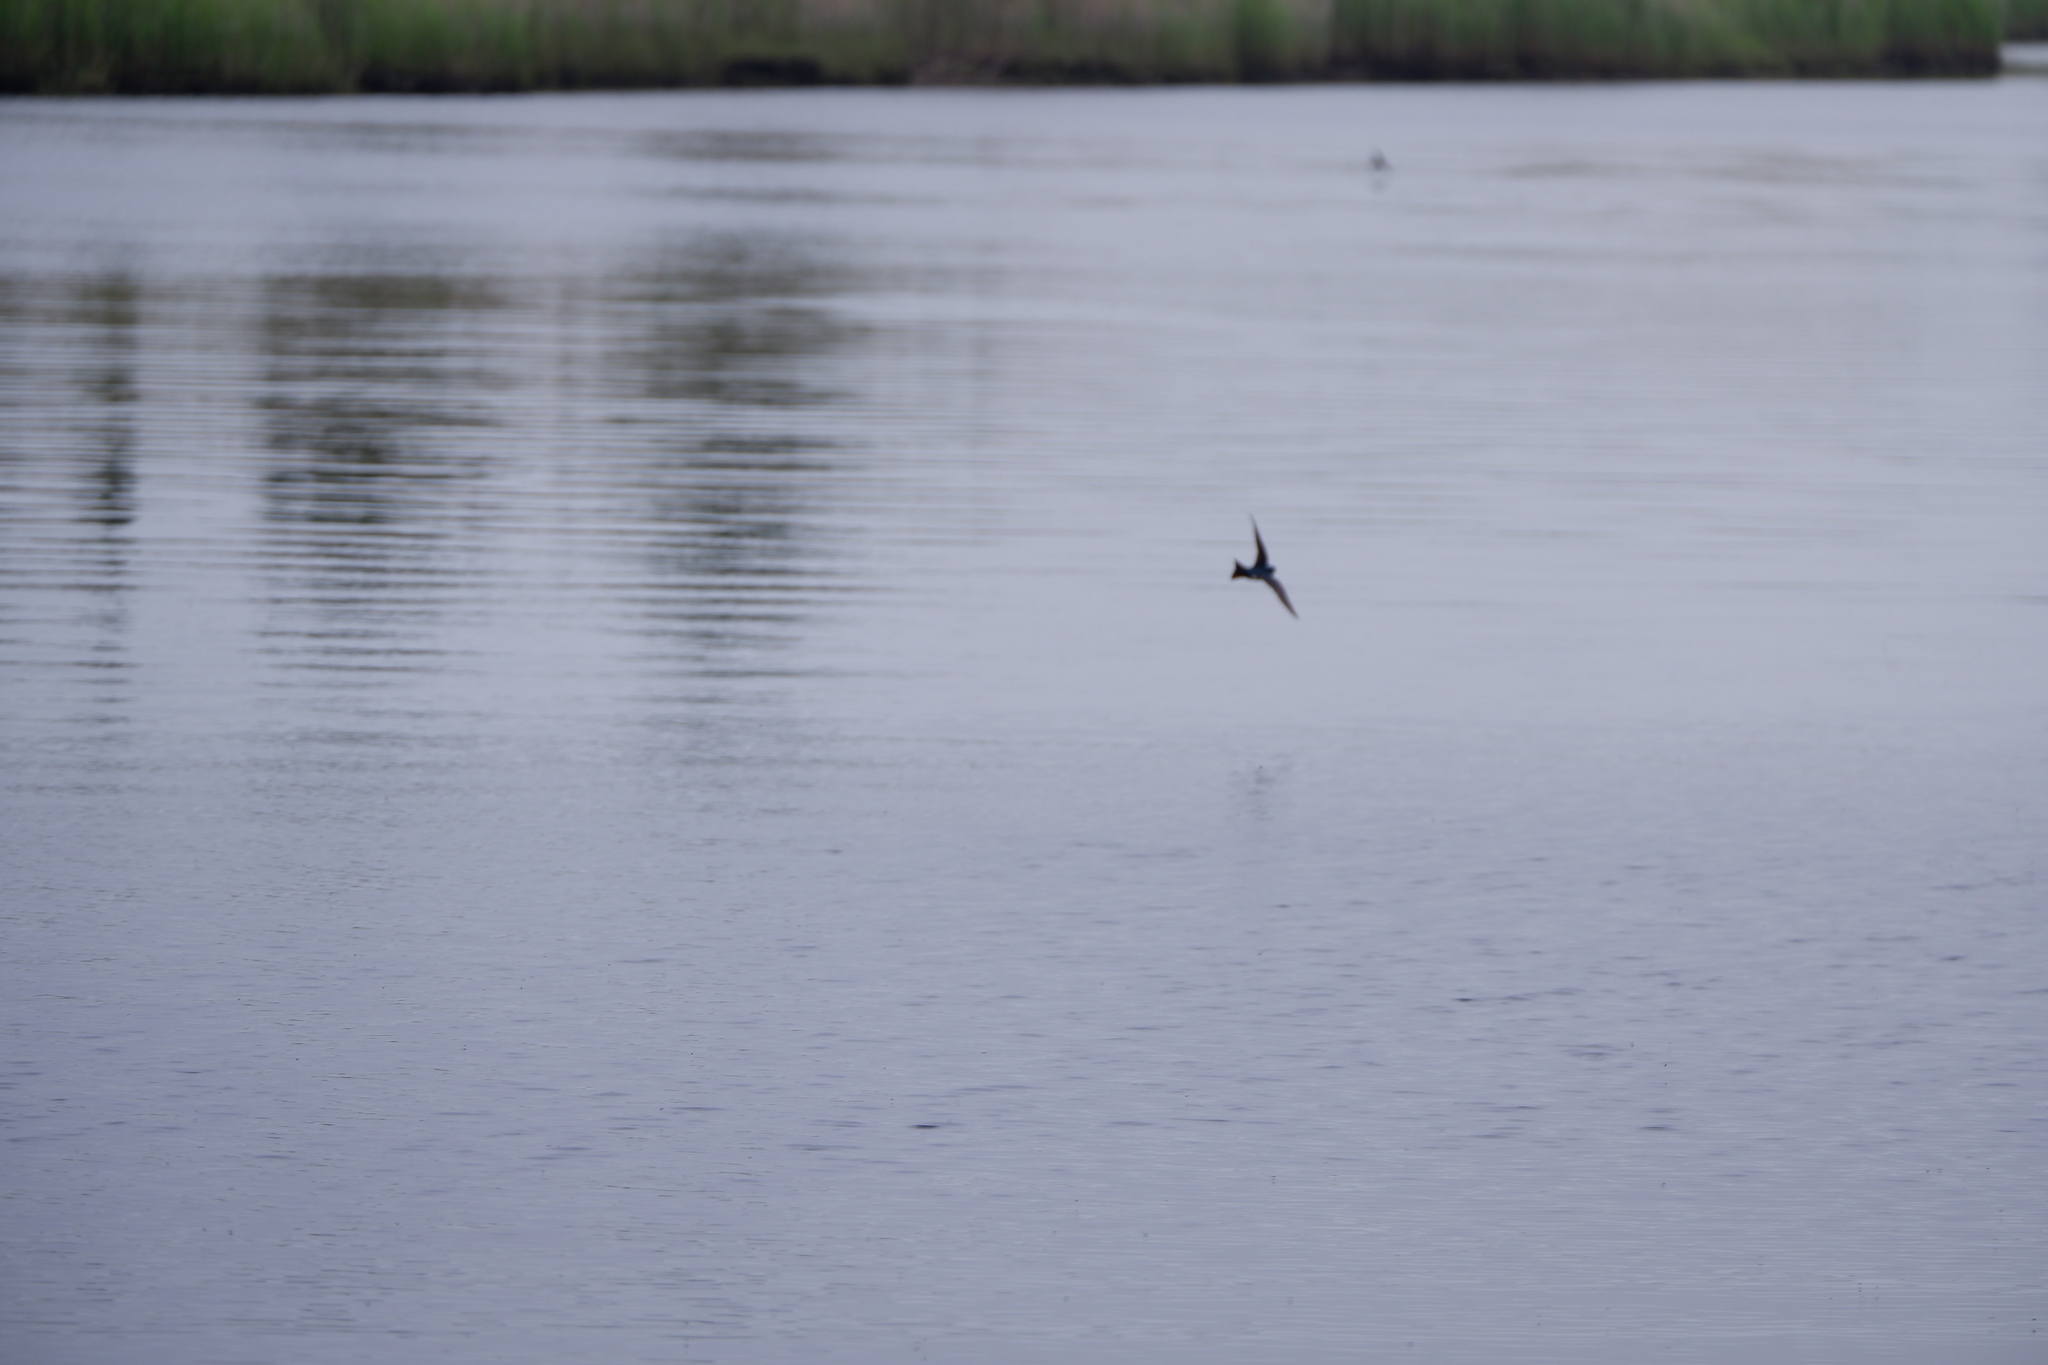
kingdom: Animalia
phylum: Chordata
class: Aves
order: Passeriformes
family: Hirundinidae
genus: Tachycineta
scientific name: Tachycineta bicolor
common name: Tree swallow
